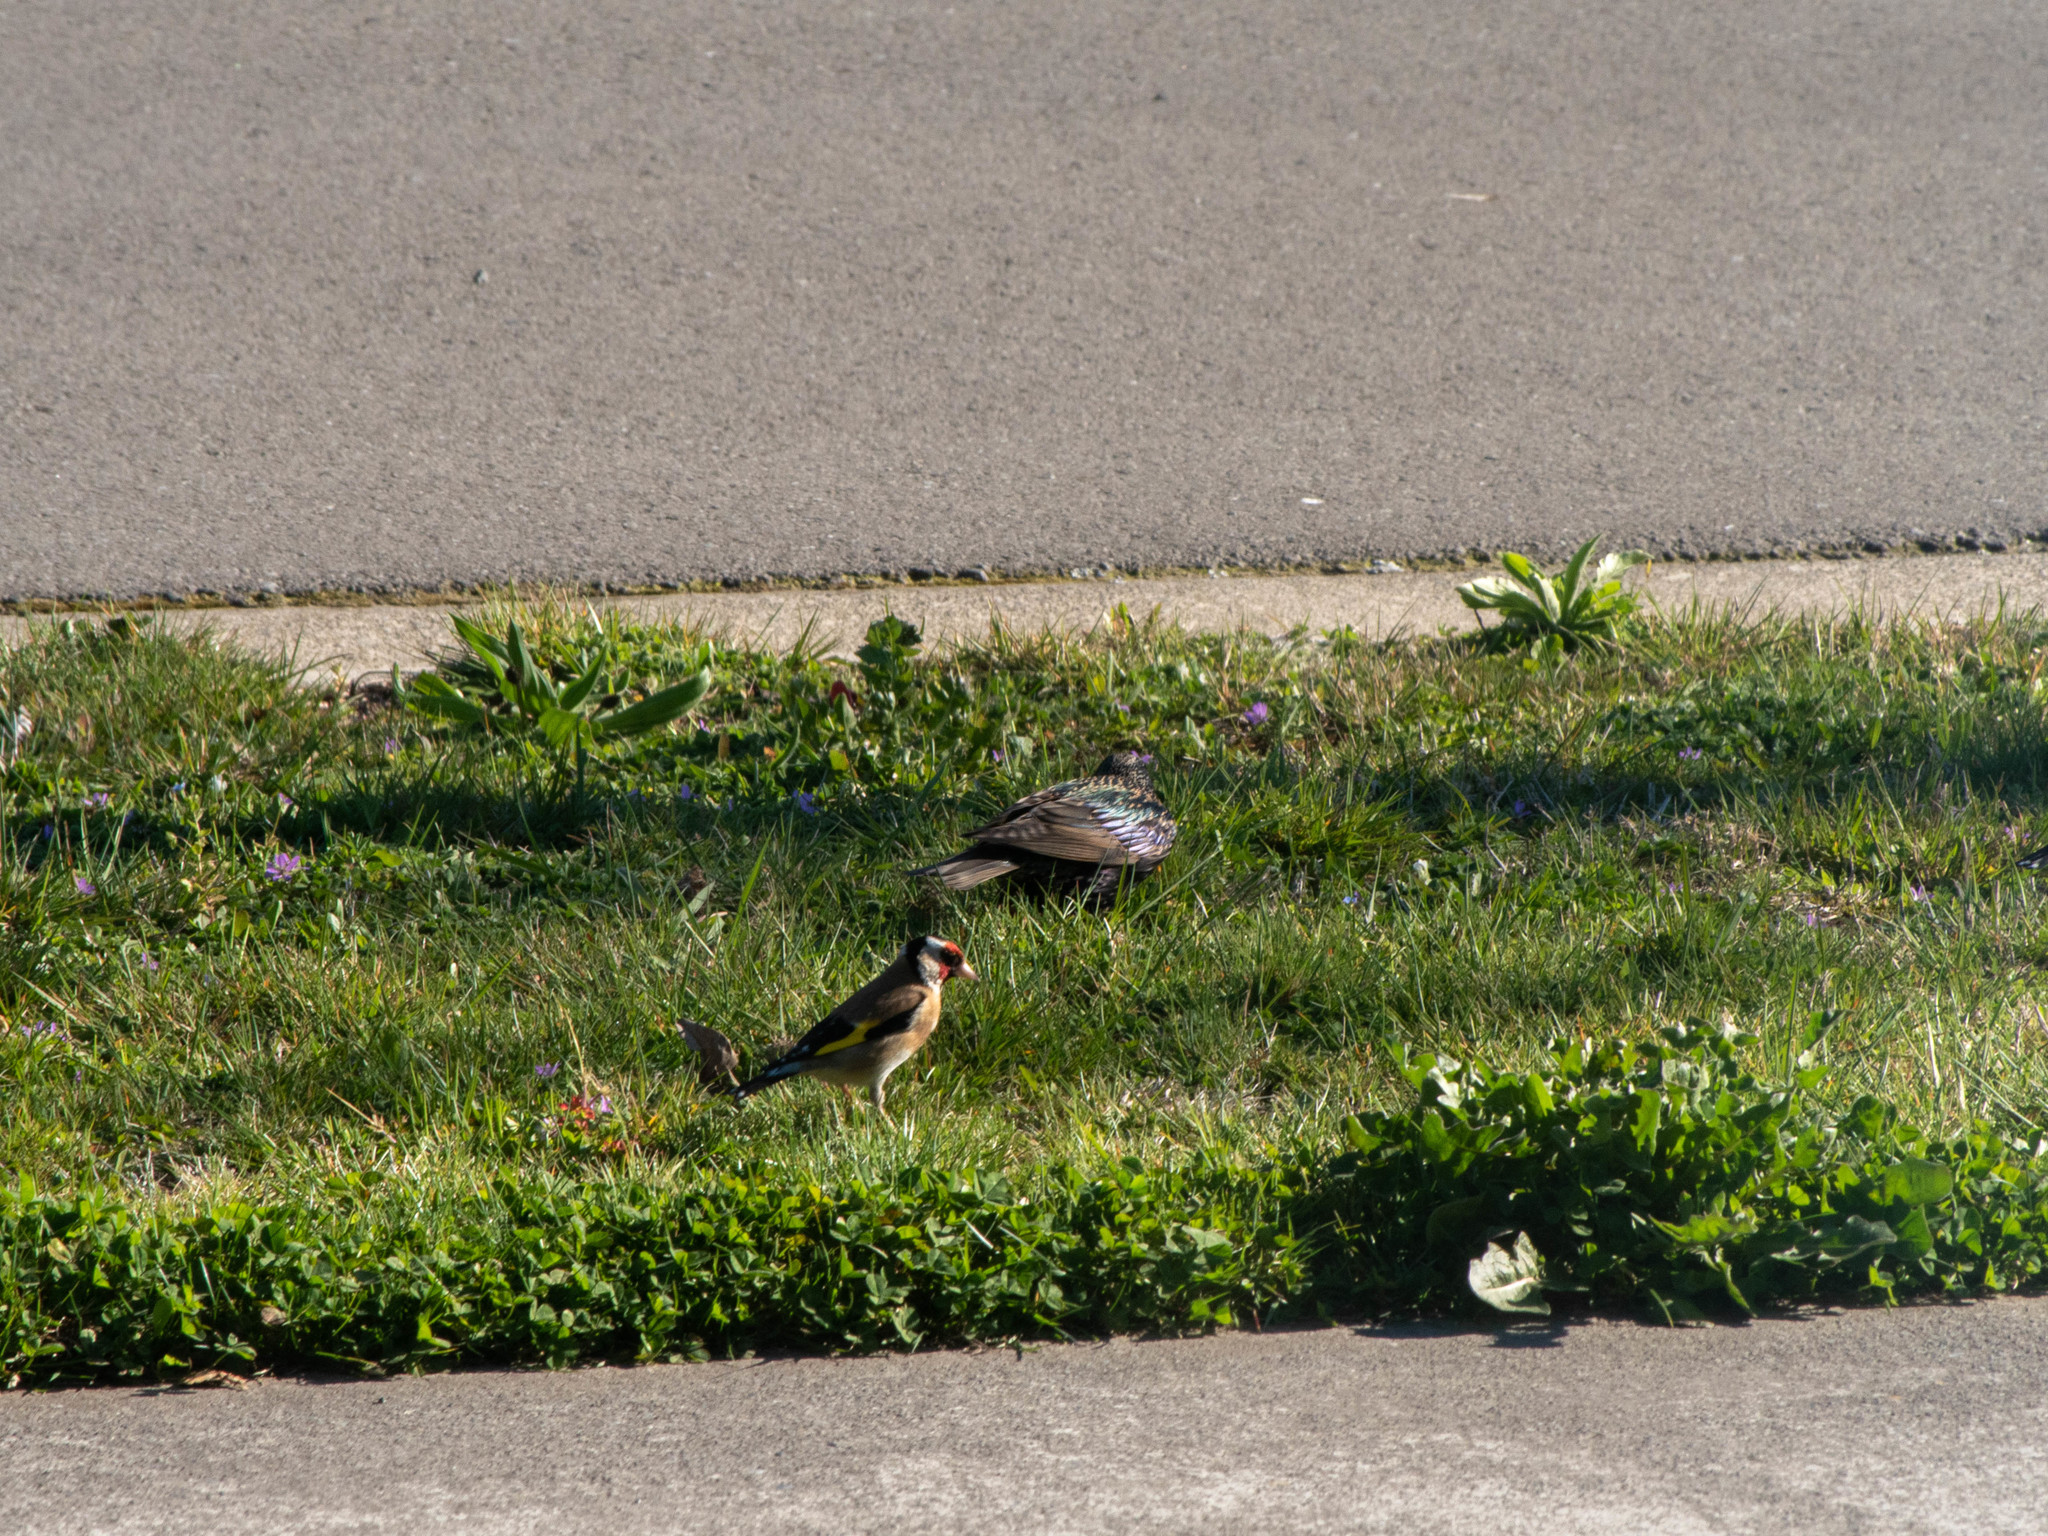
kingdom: Animalia
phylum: Chordata
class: Aves
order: Passeriformes
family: Fringillidae
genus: Carduelis
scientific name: Carduelis carduelis
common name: European goldfinch
